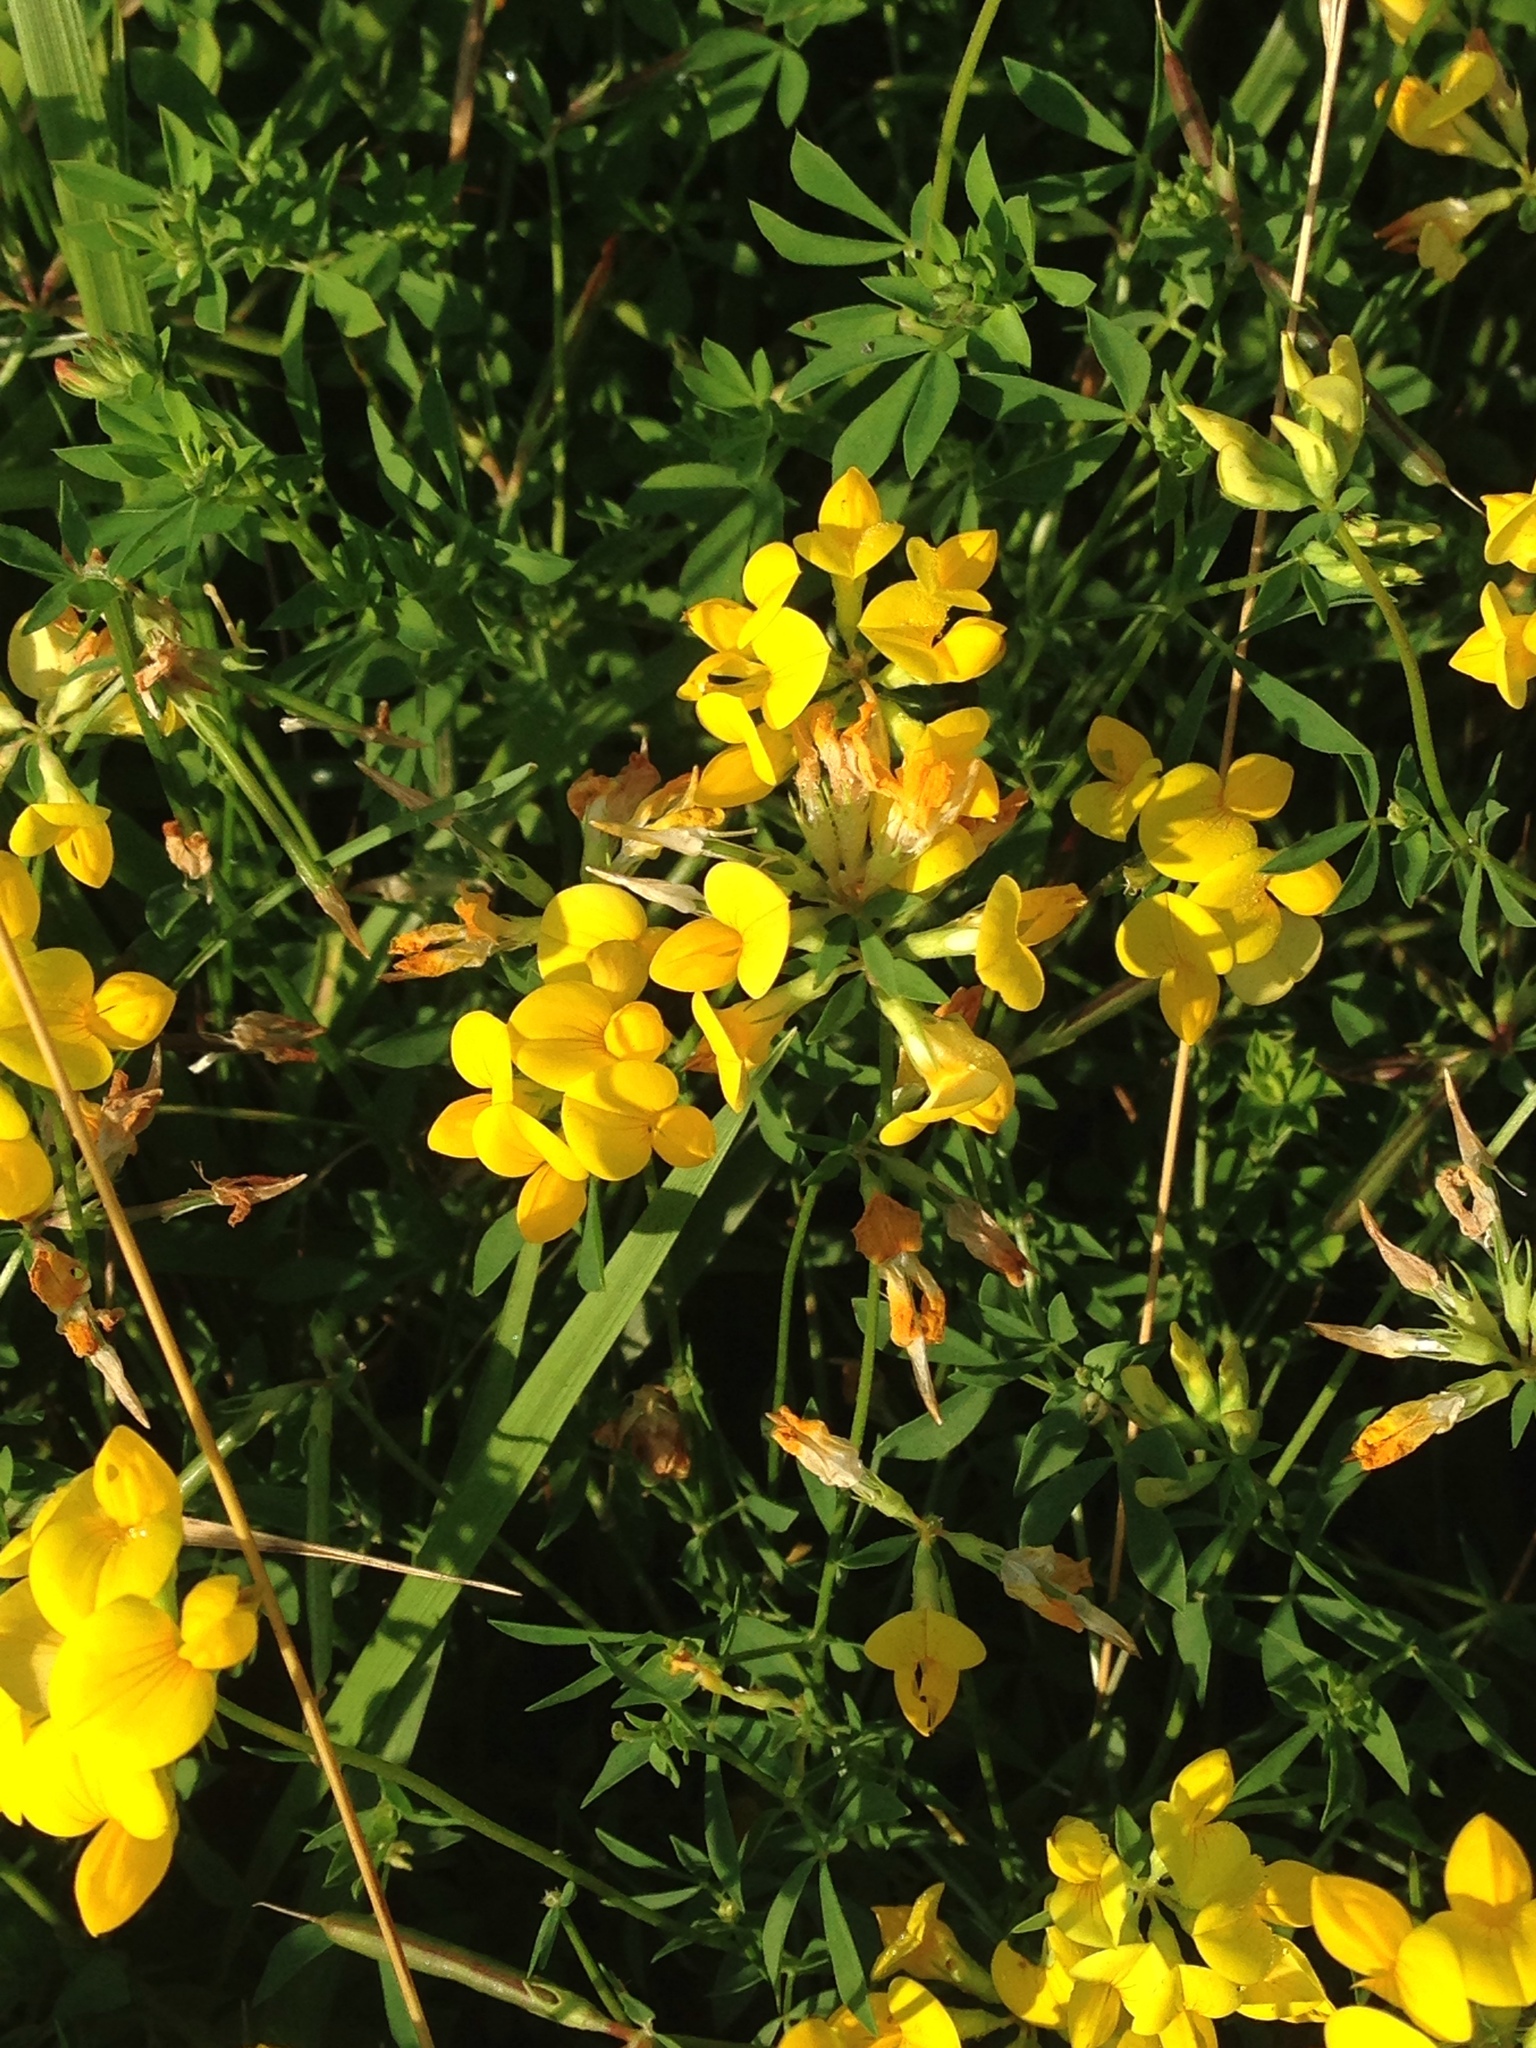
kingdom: Plantae
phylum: Tracheophyta
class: Magnoliopsida
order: Fabales
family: Fabaceae
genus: Lotus
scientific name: Lotus corniculatus
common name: Common bird's-foot-trefoil
